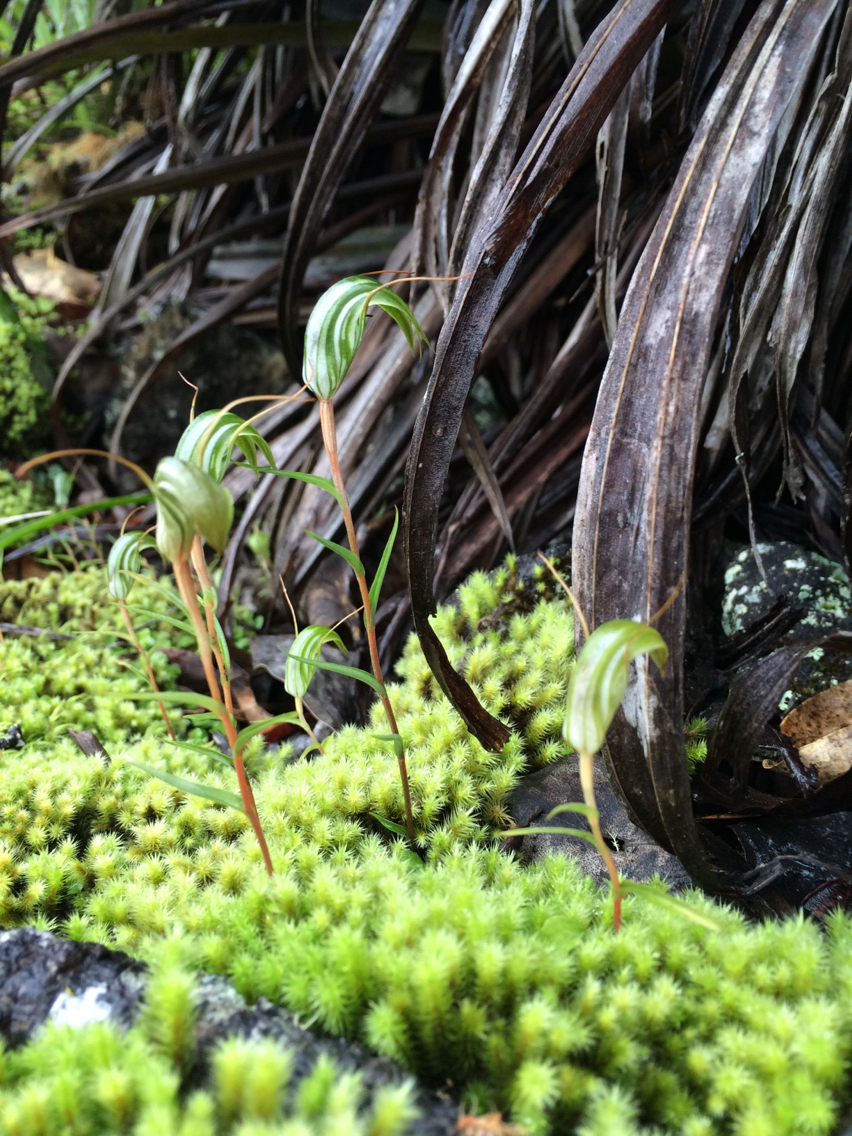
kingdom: Plantae
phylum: Tracheophyta
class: Liliopsida
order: Asparagales
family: Orchidaceae
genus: Pterostylis
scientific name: Pterostylis alobula
